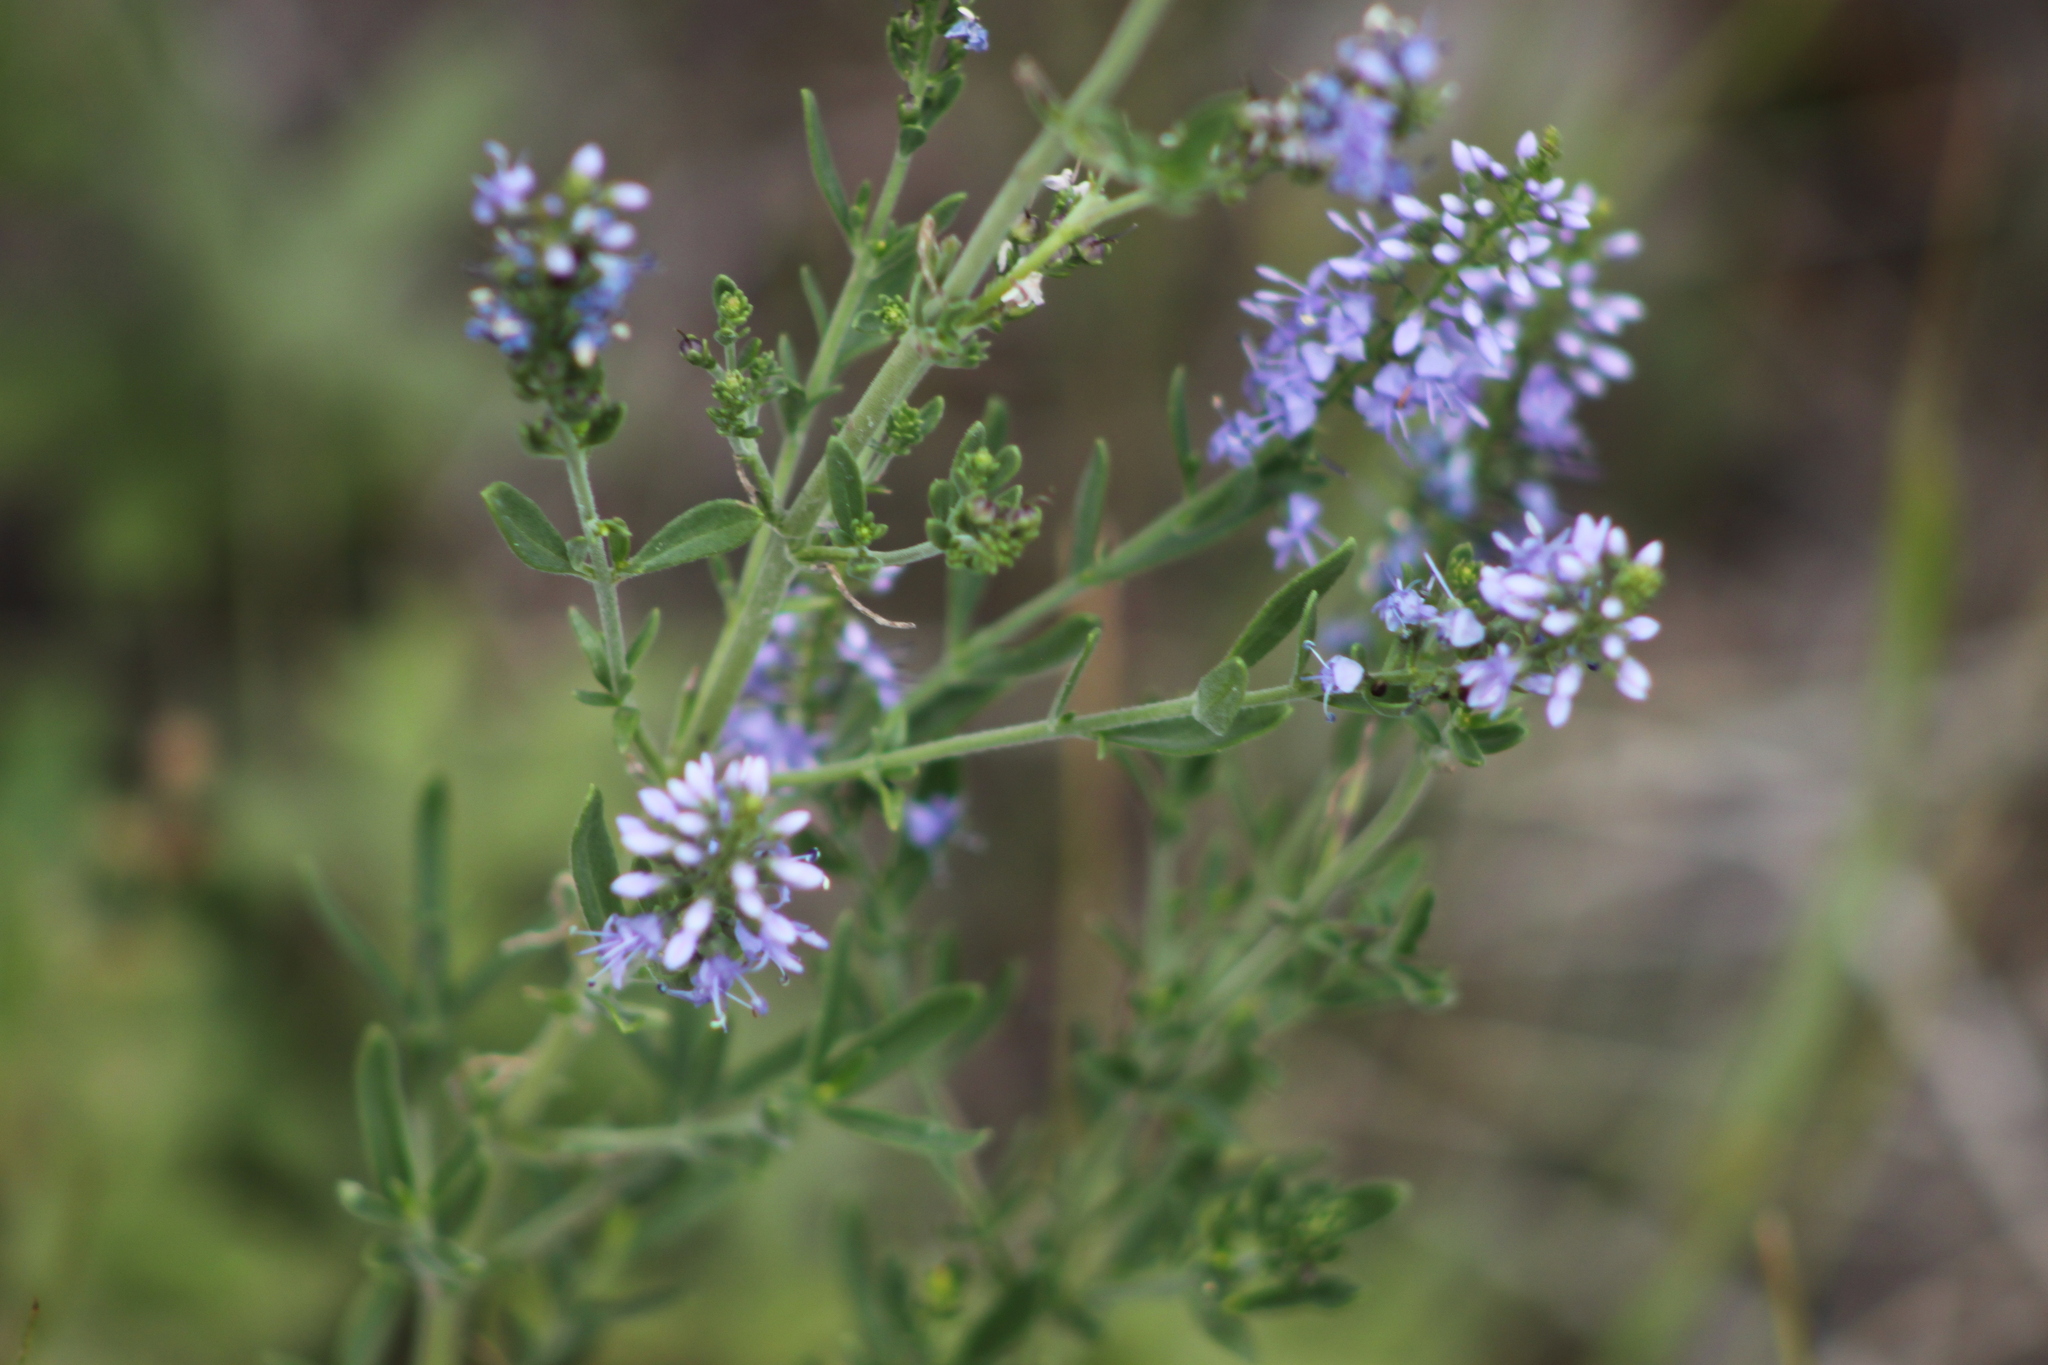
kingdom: Plantae
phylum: Tracheophyta
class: Magnoliopsida
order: Lamiales
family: Plantaginaceae
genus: Veronica
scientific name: Veronica spuria
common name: Bastard speedwell
